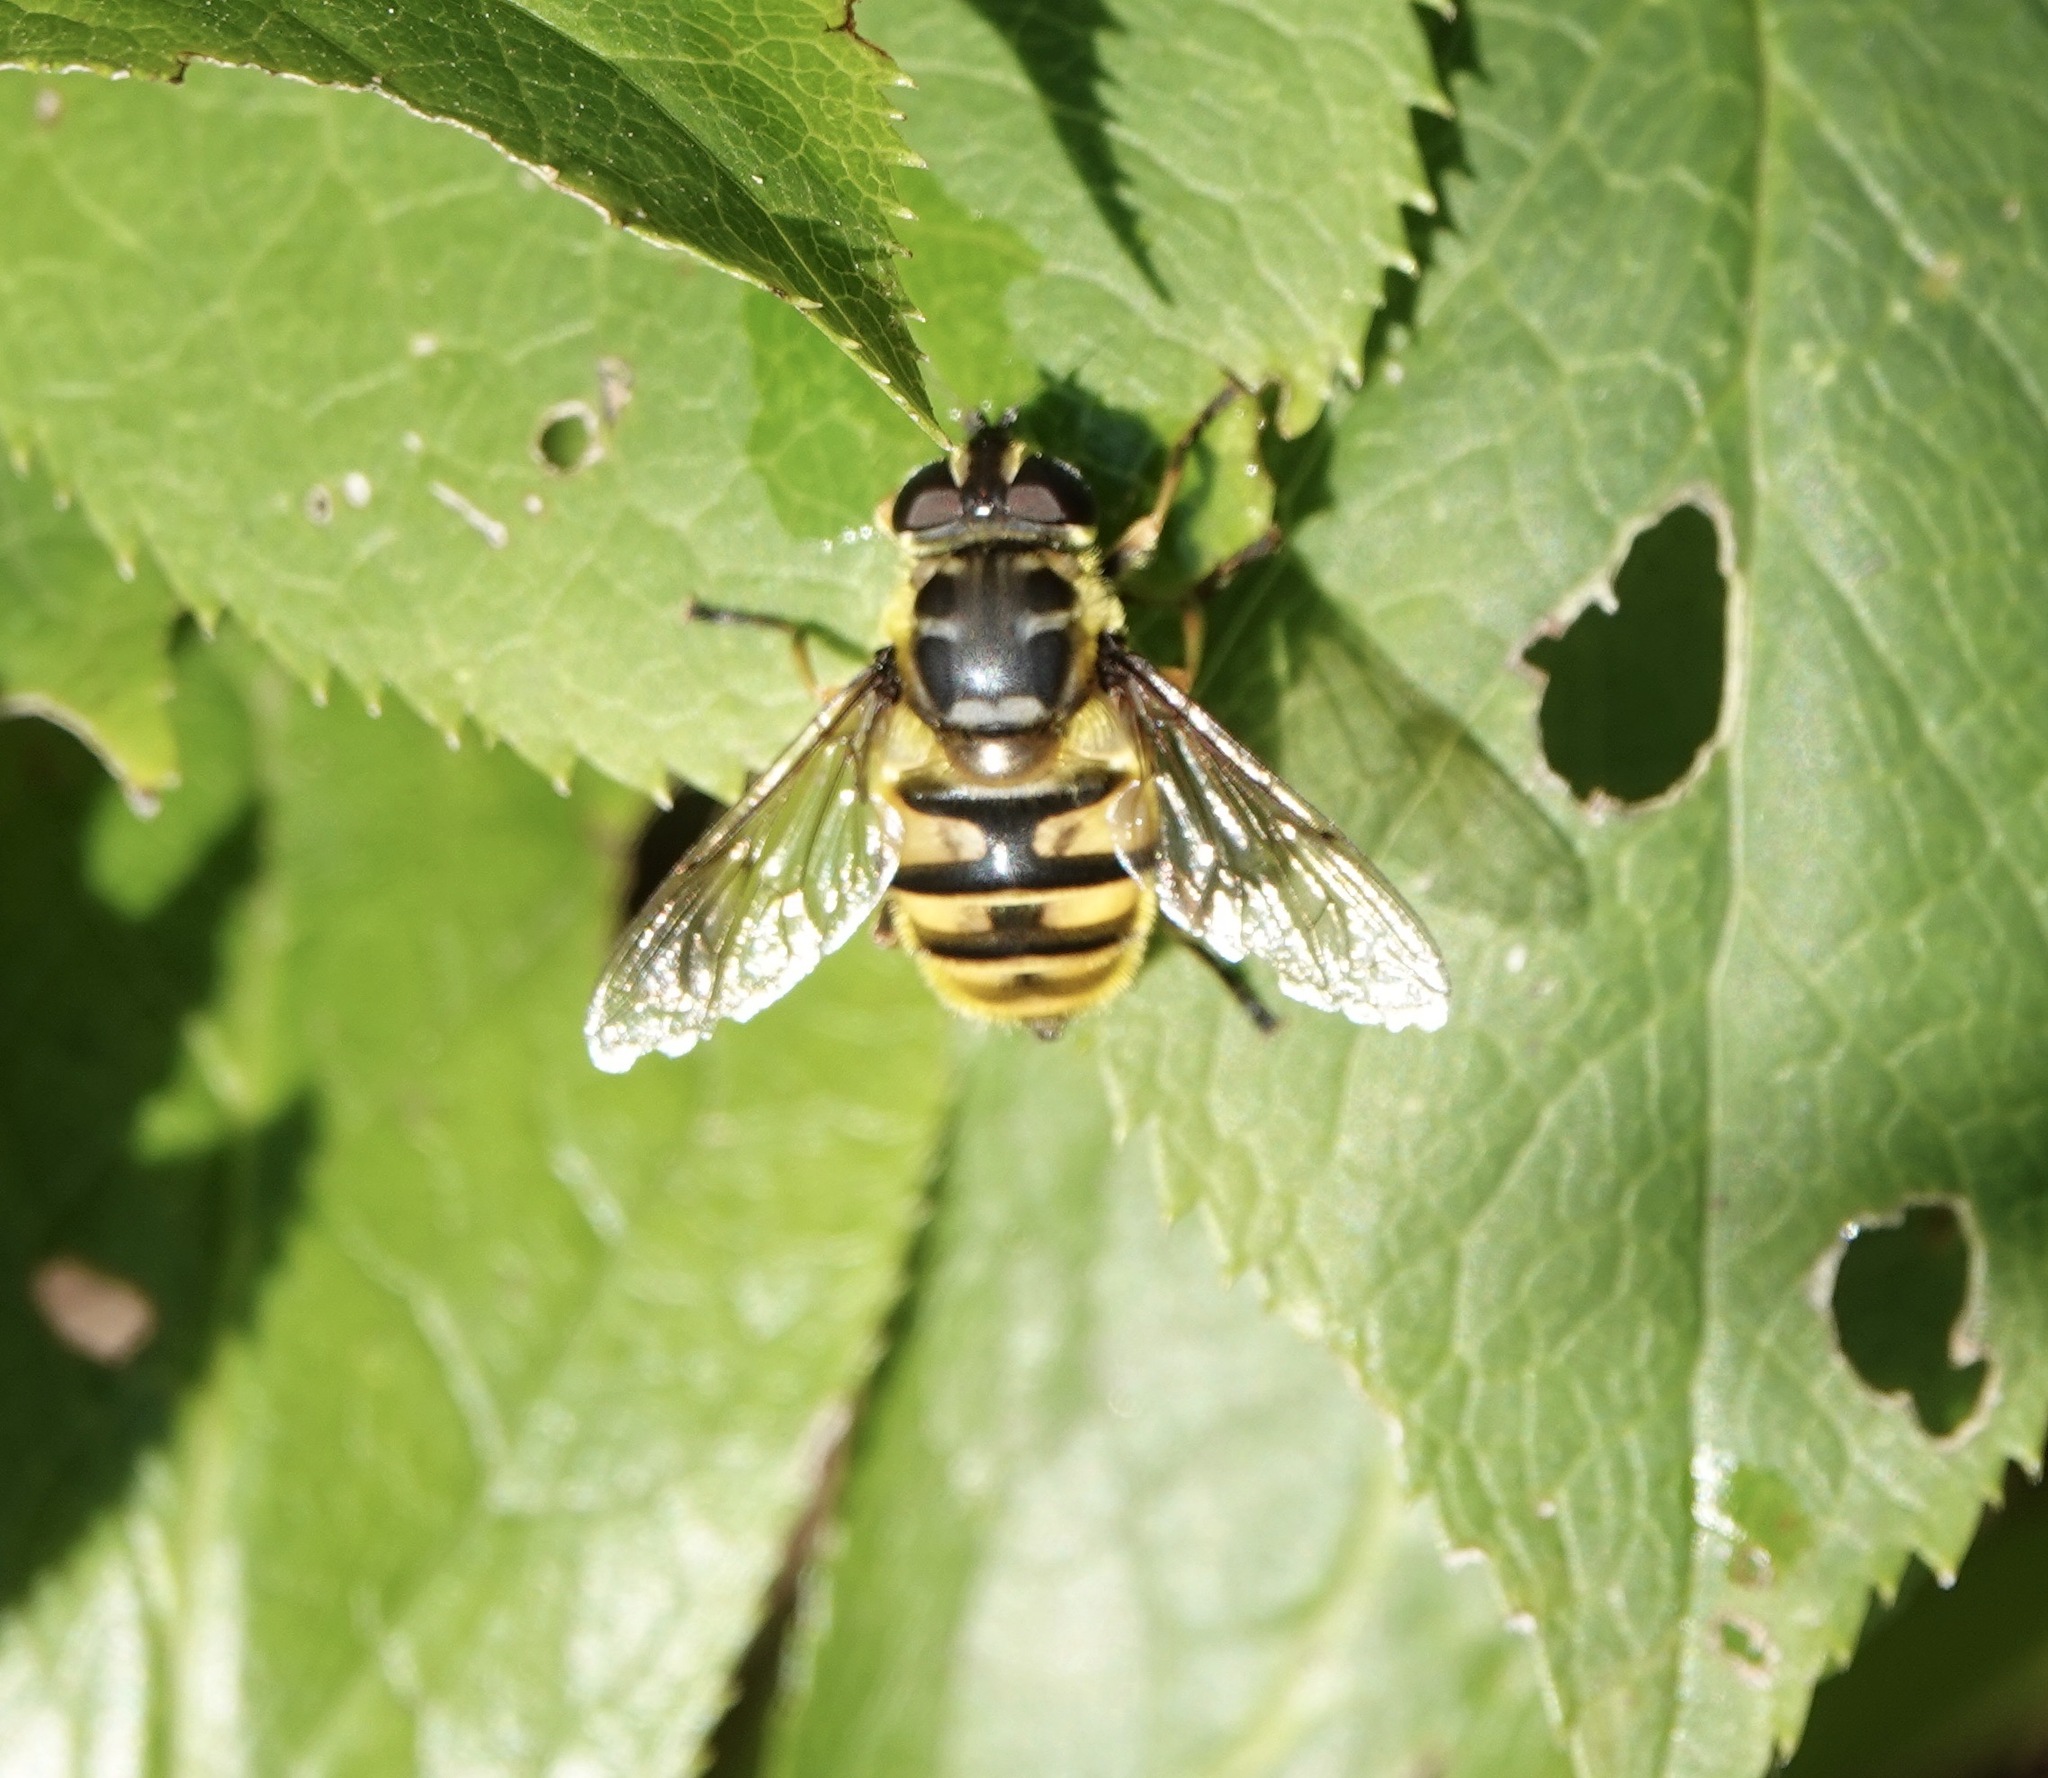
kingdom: Animalia
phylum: Arthropoda
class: Insecta
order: Diptera
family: Syrphidae
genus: Myathropa
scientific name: Myathropa florea
